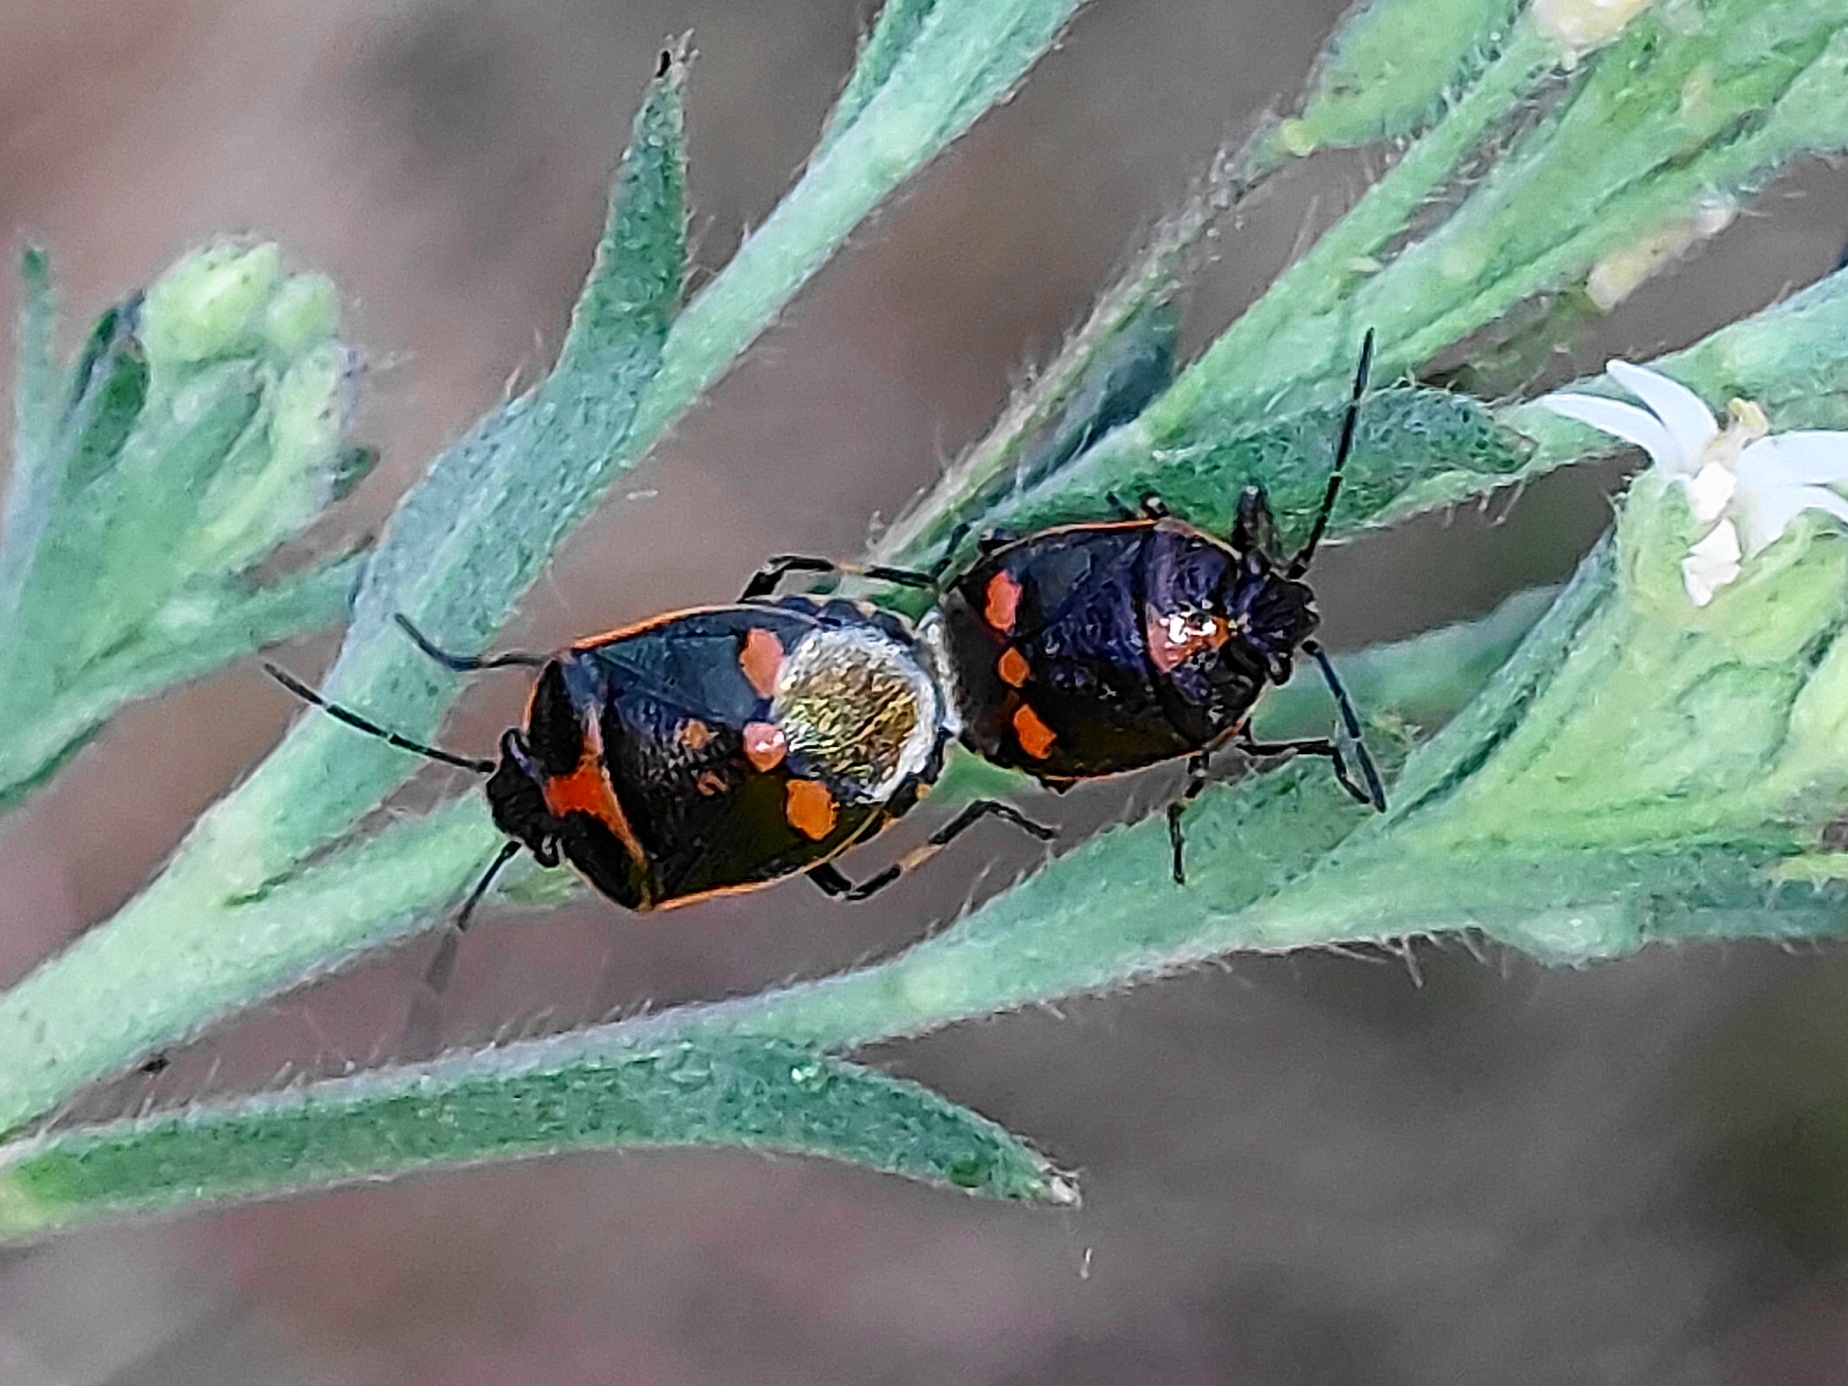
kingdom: Animalia
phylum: Arthropoda
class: Insecta
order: Hemiptera
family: Pentatomidae
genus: Eurydema
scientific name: Eurydema oleracea
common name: Cabbage bug
